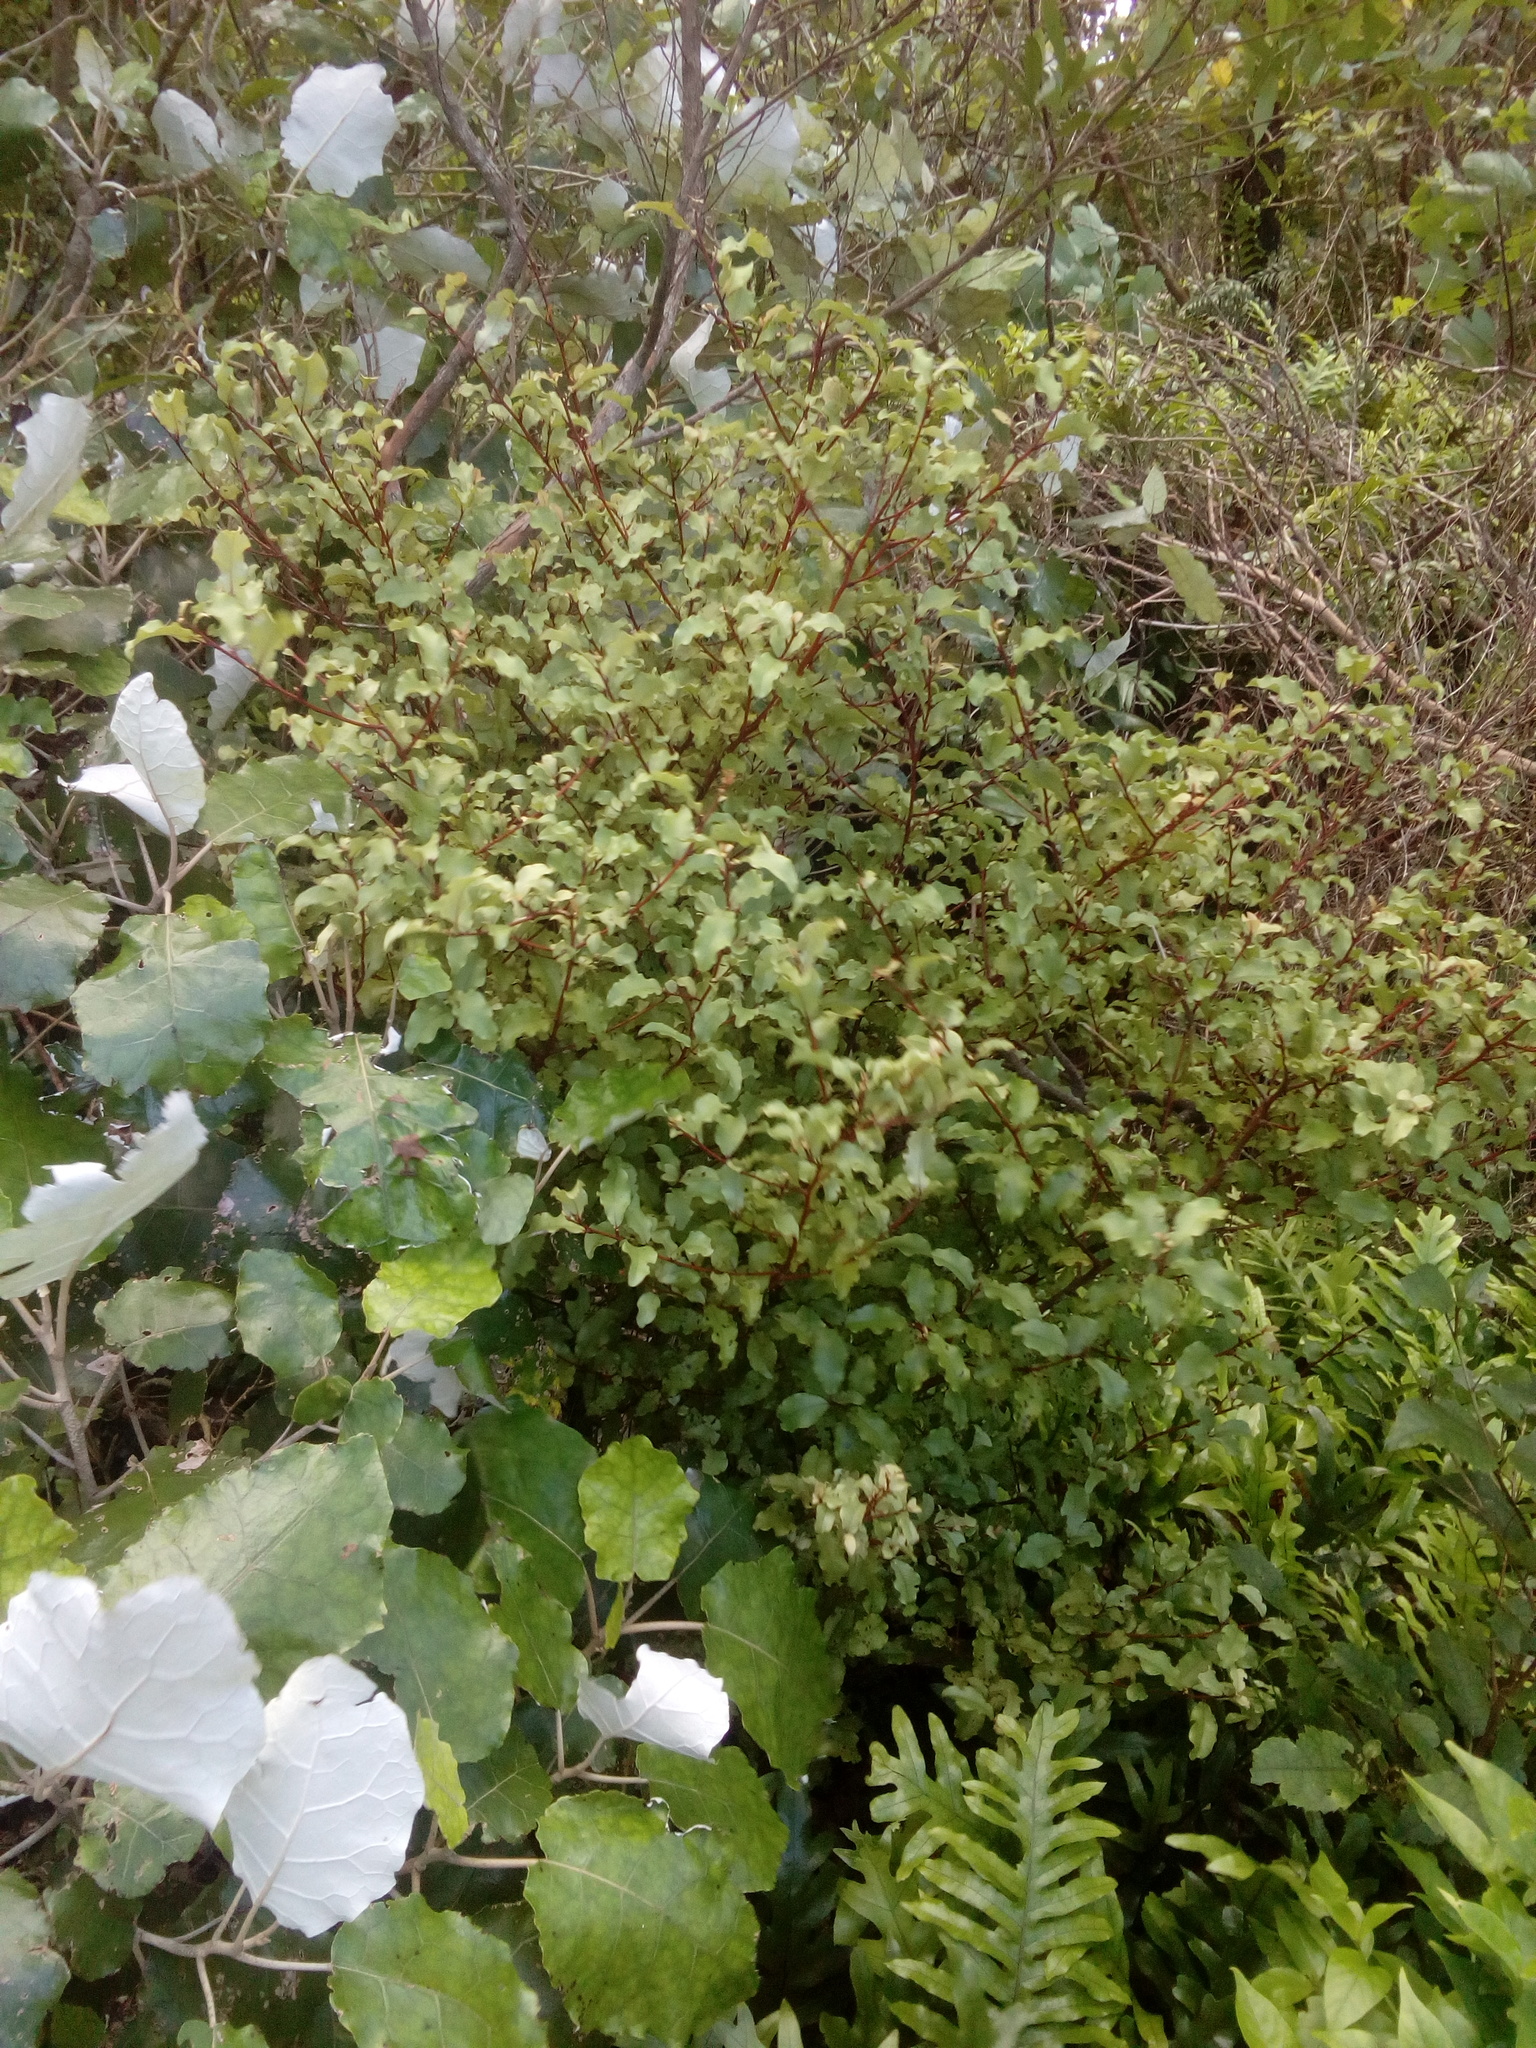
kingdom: Plantae
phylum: Tracheophyta
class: Magnoliopsida
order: Ericales
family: Primulaceae
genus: Myrsine
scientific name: Myrsine australis
